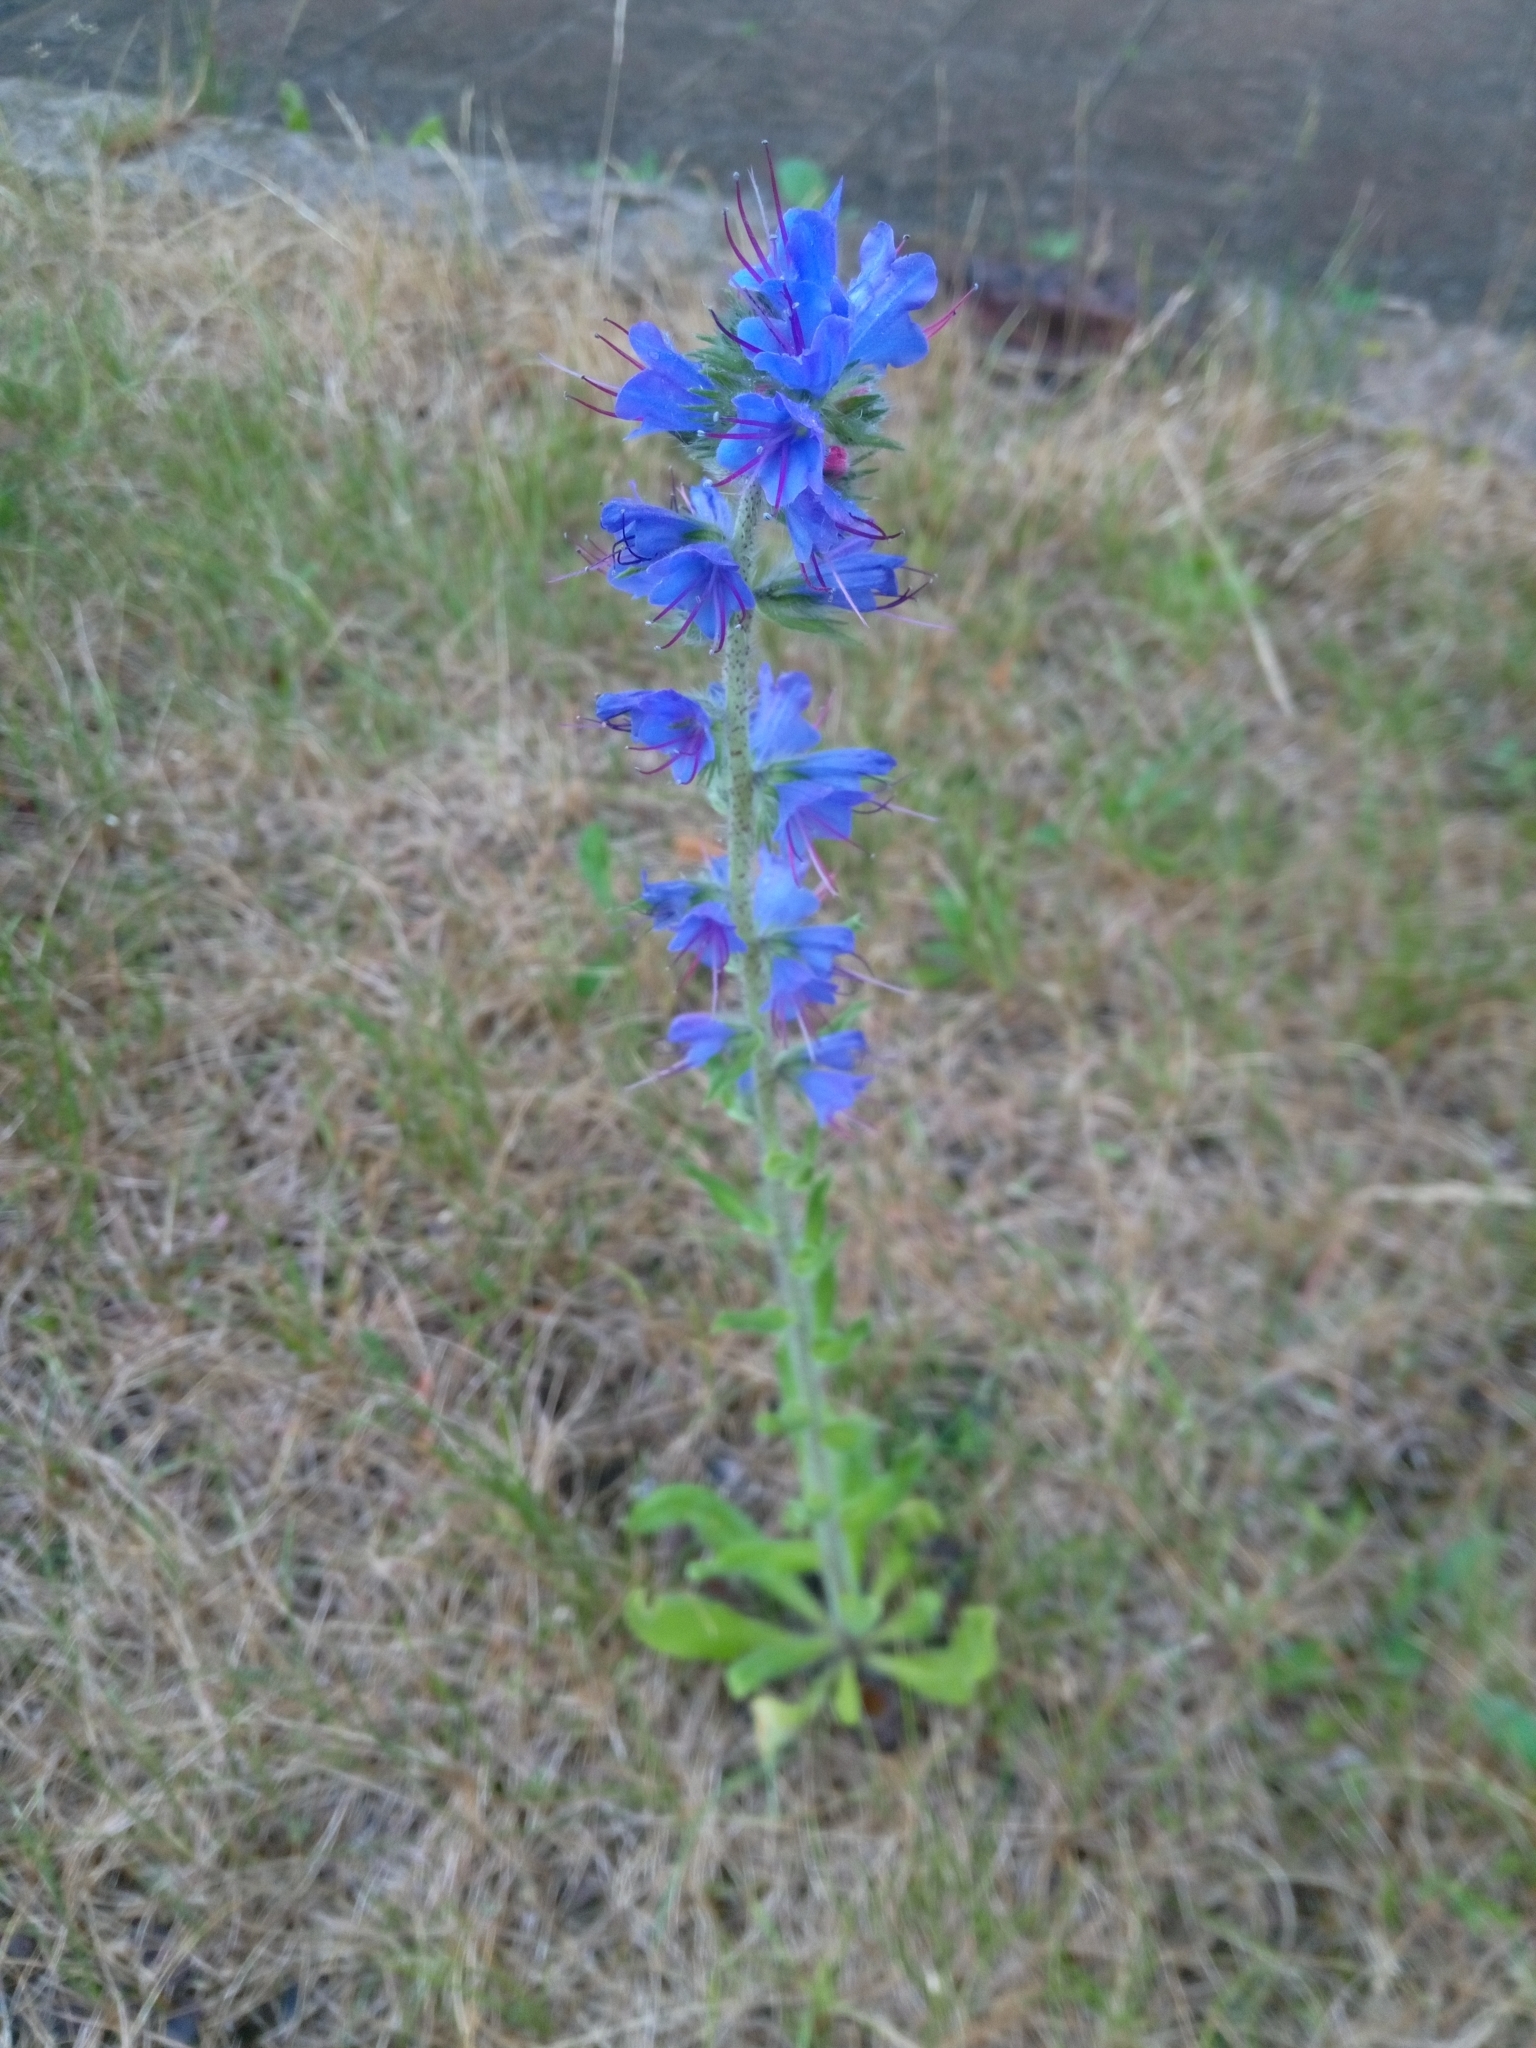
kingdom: Plantae
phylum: Tracheophyta
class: Magnoliopsida
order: Boraginales
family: Boraginaceae
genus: Echium
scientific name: Echium vulgare
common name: Common viper's bugloss
